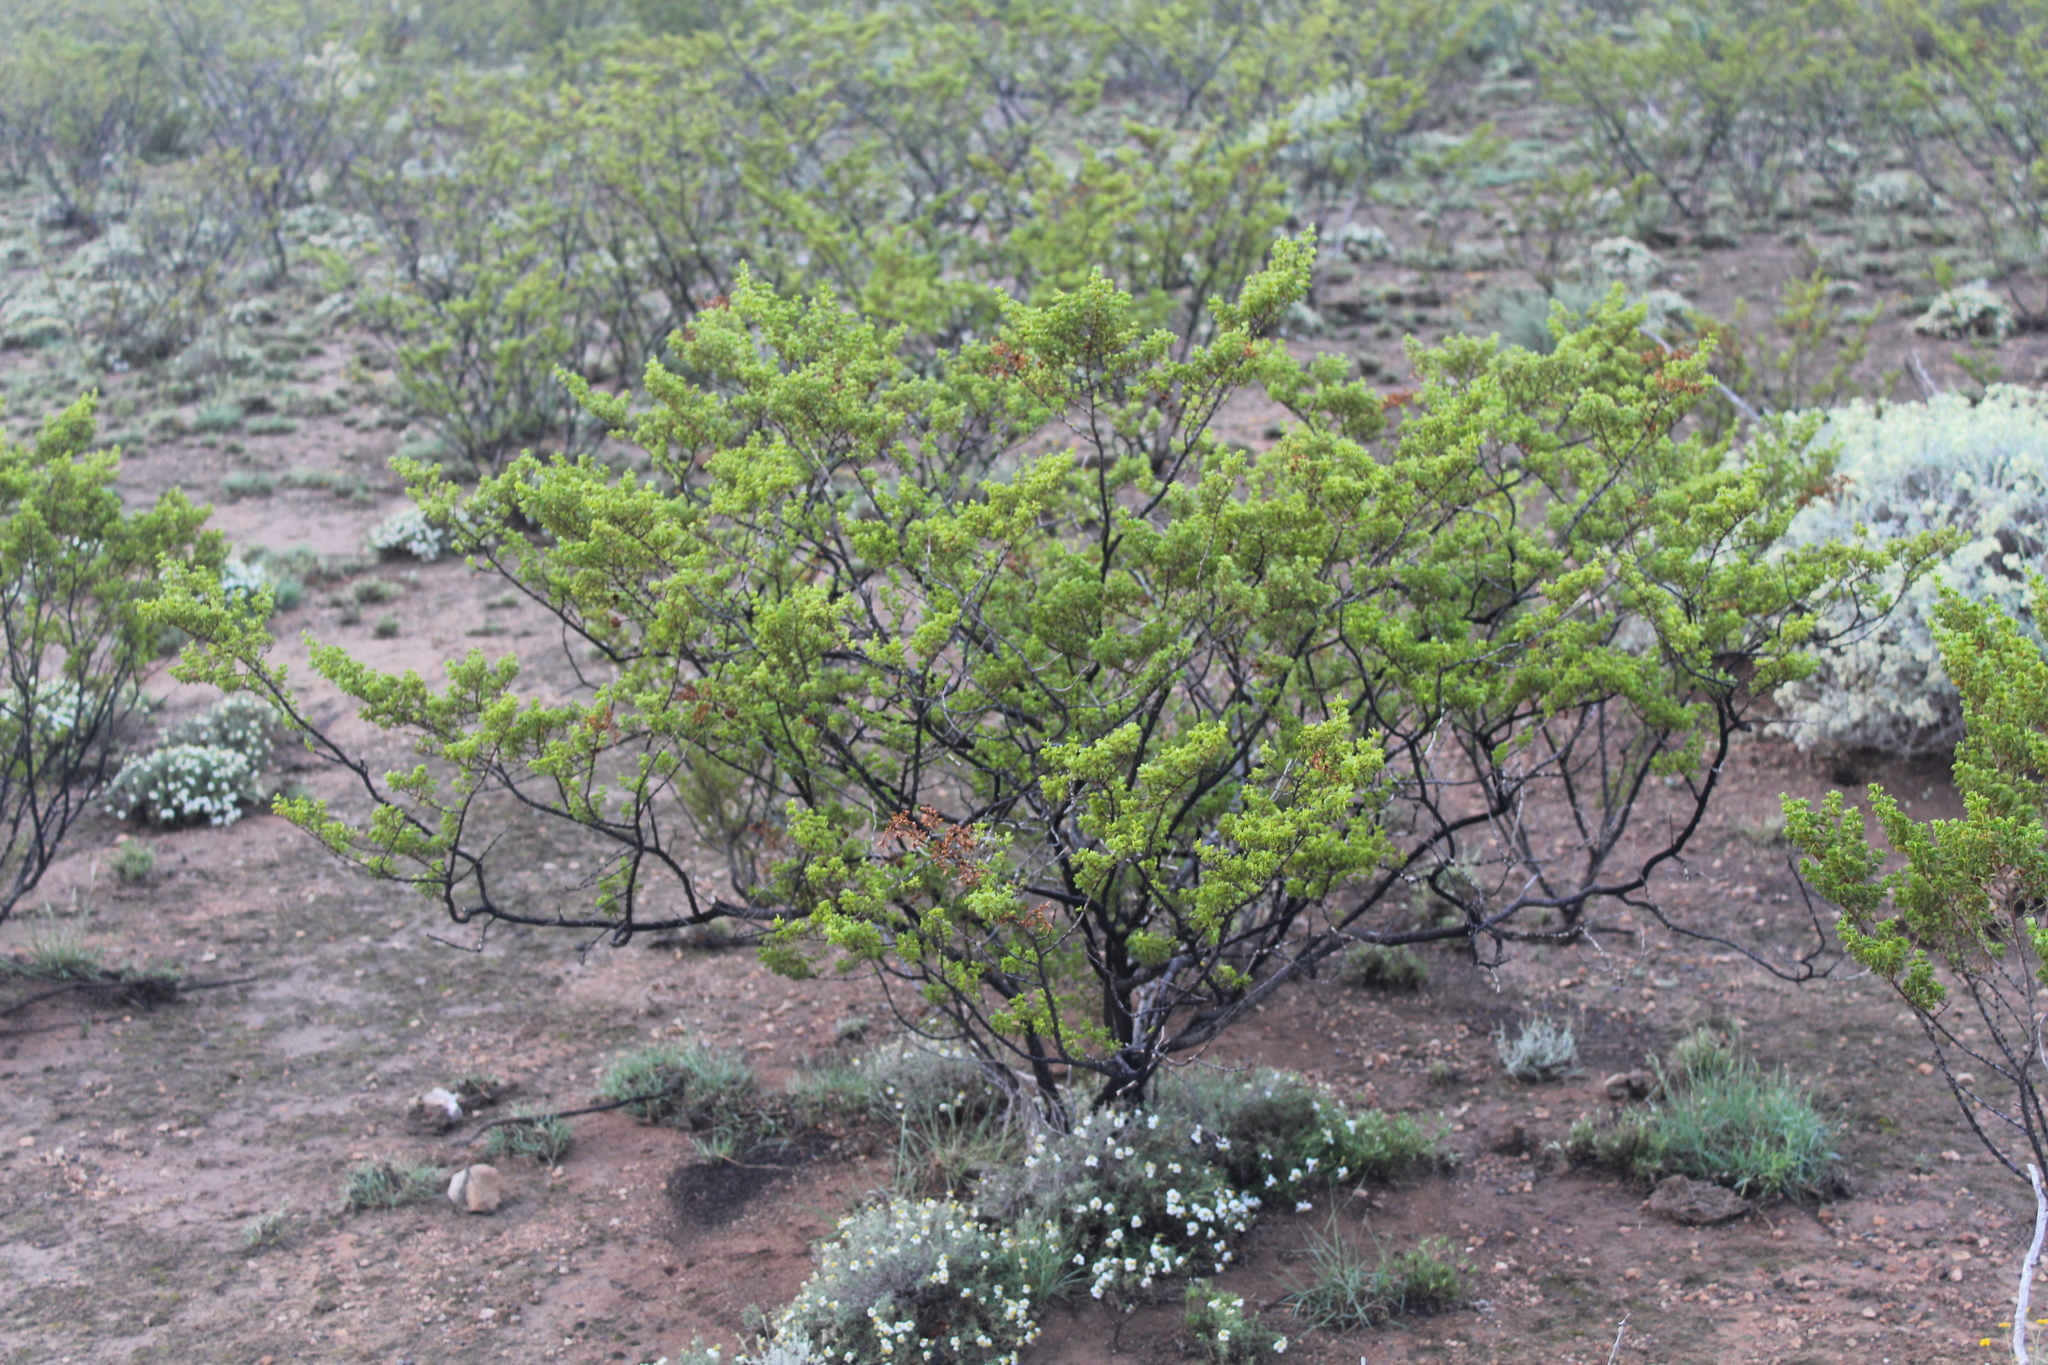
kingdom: Plantae
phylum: Tracheophyta
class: Magnoliopsida
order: Zygophyllales
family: Zygophyllaceae
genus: Larrea
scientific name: Larrea tridentata
